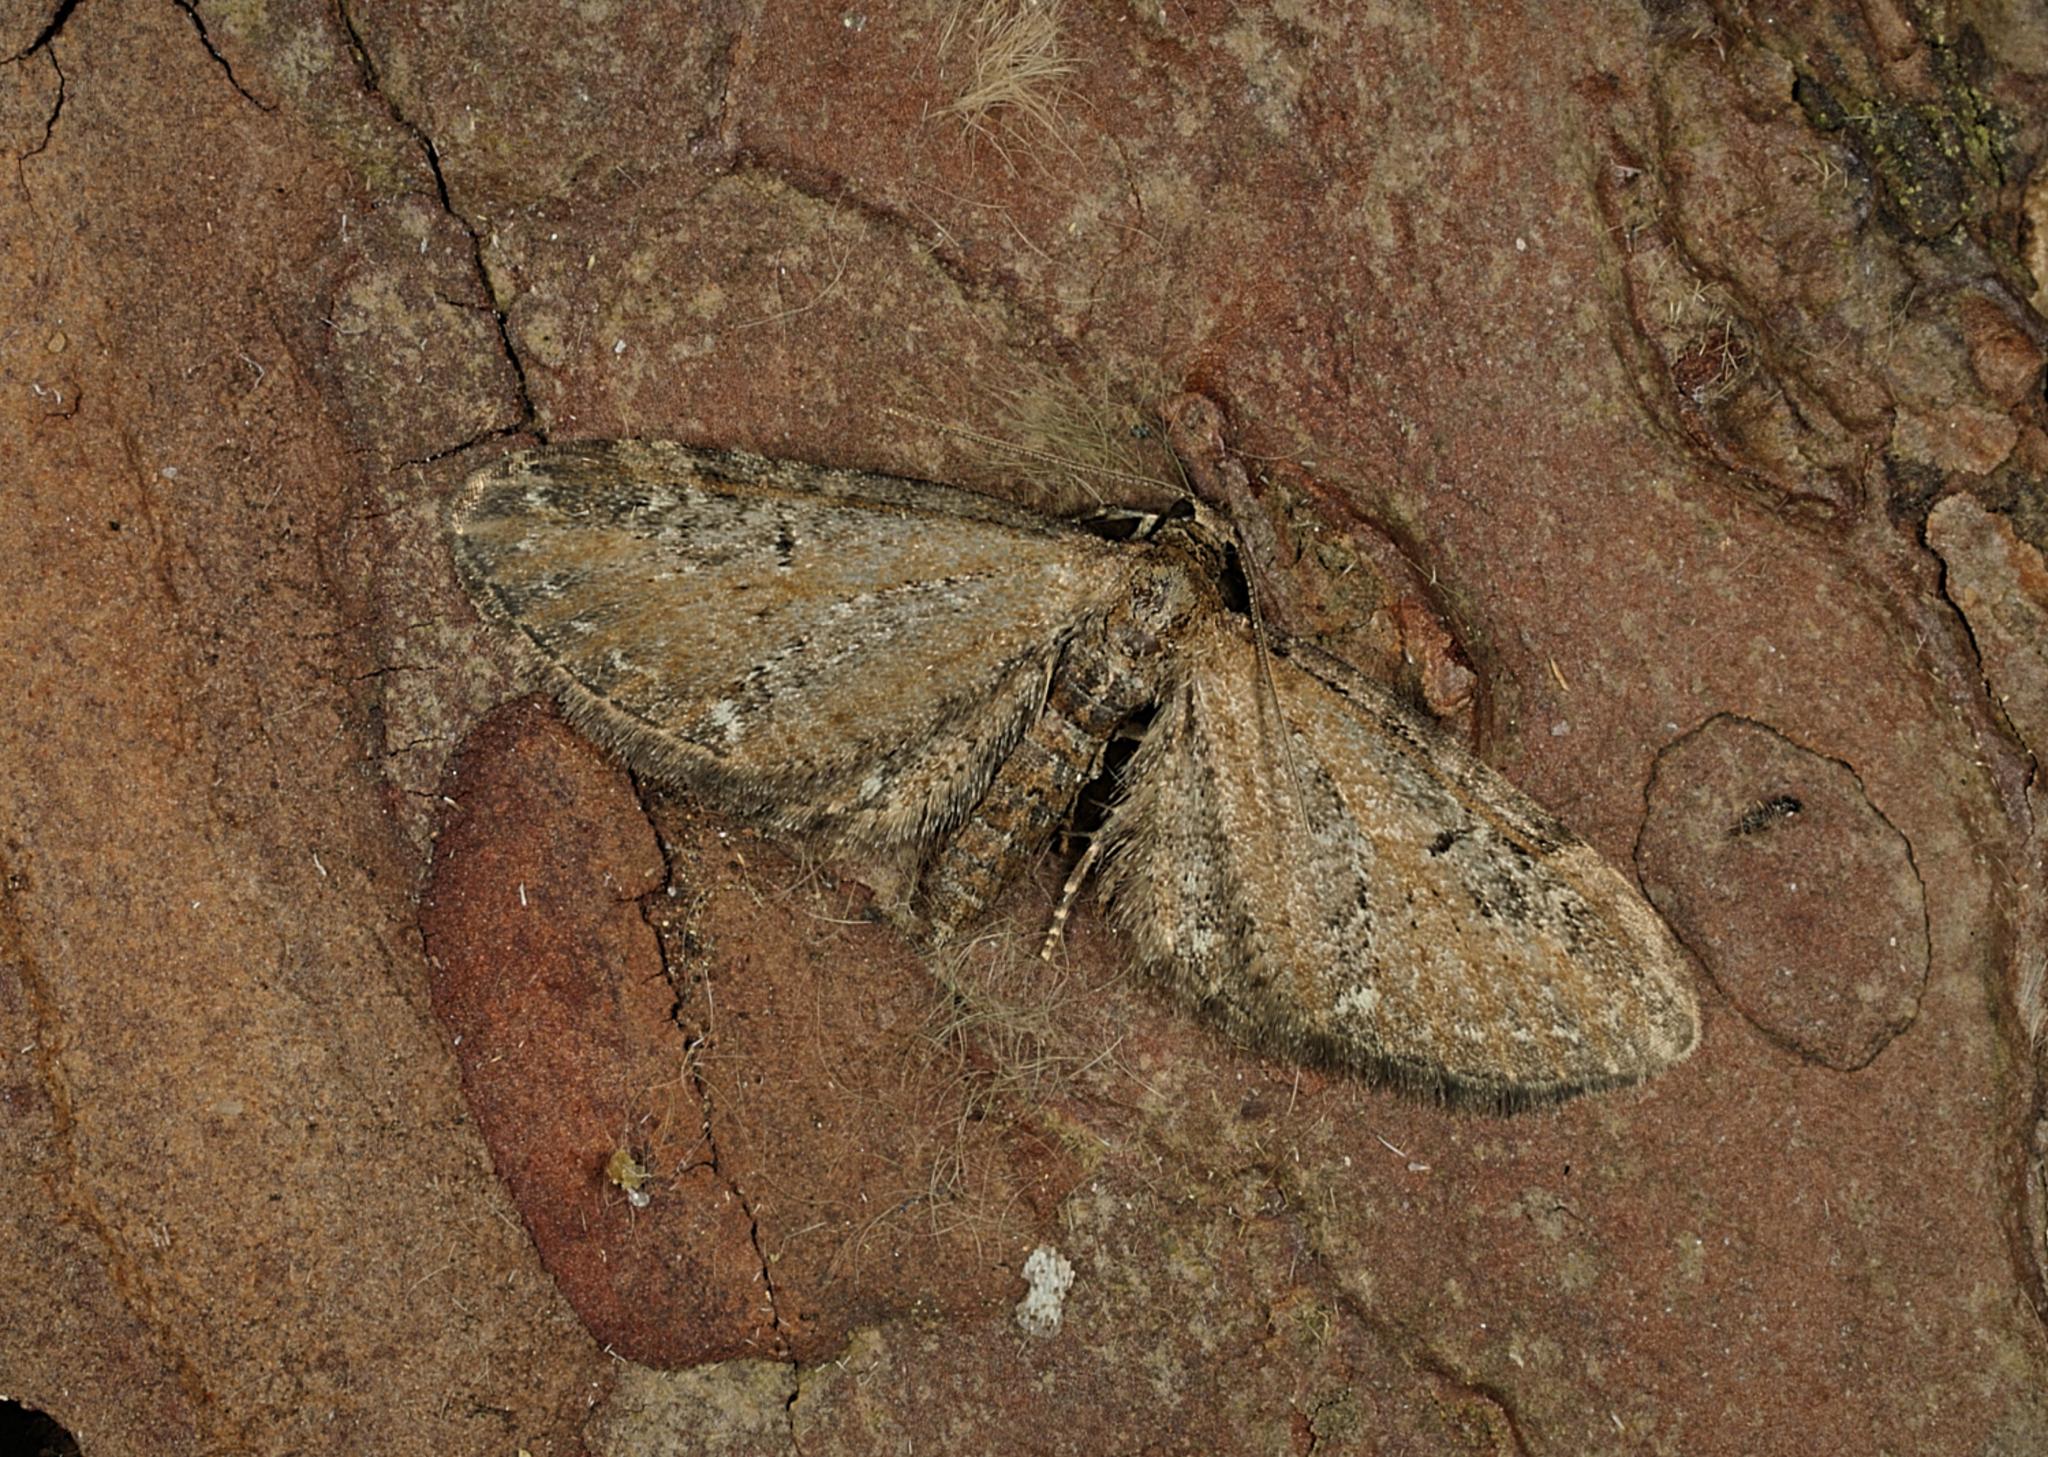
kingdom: Animalia
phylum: Arthropoda
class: Insecta
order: Lepidoptera
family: Geometridae
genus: Eupithecia
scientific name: Eupithecia vulgata
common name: Common pug
